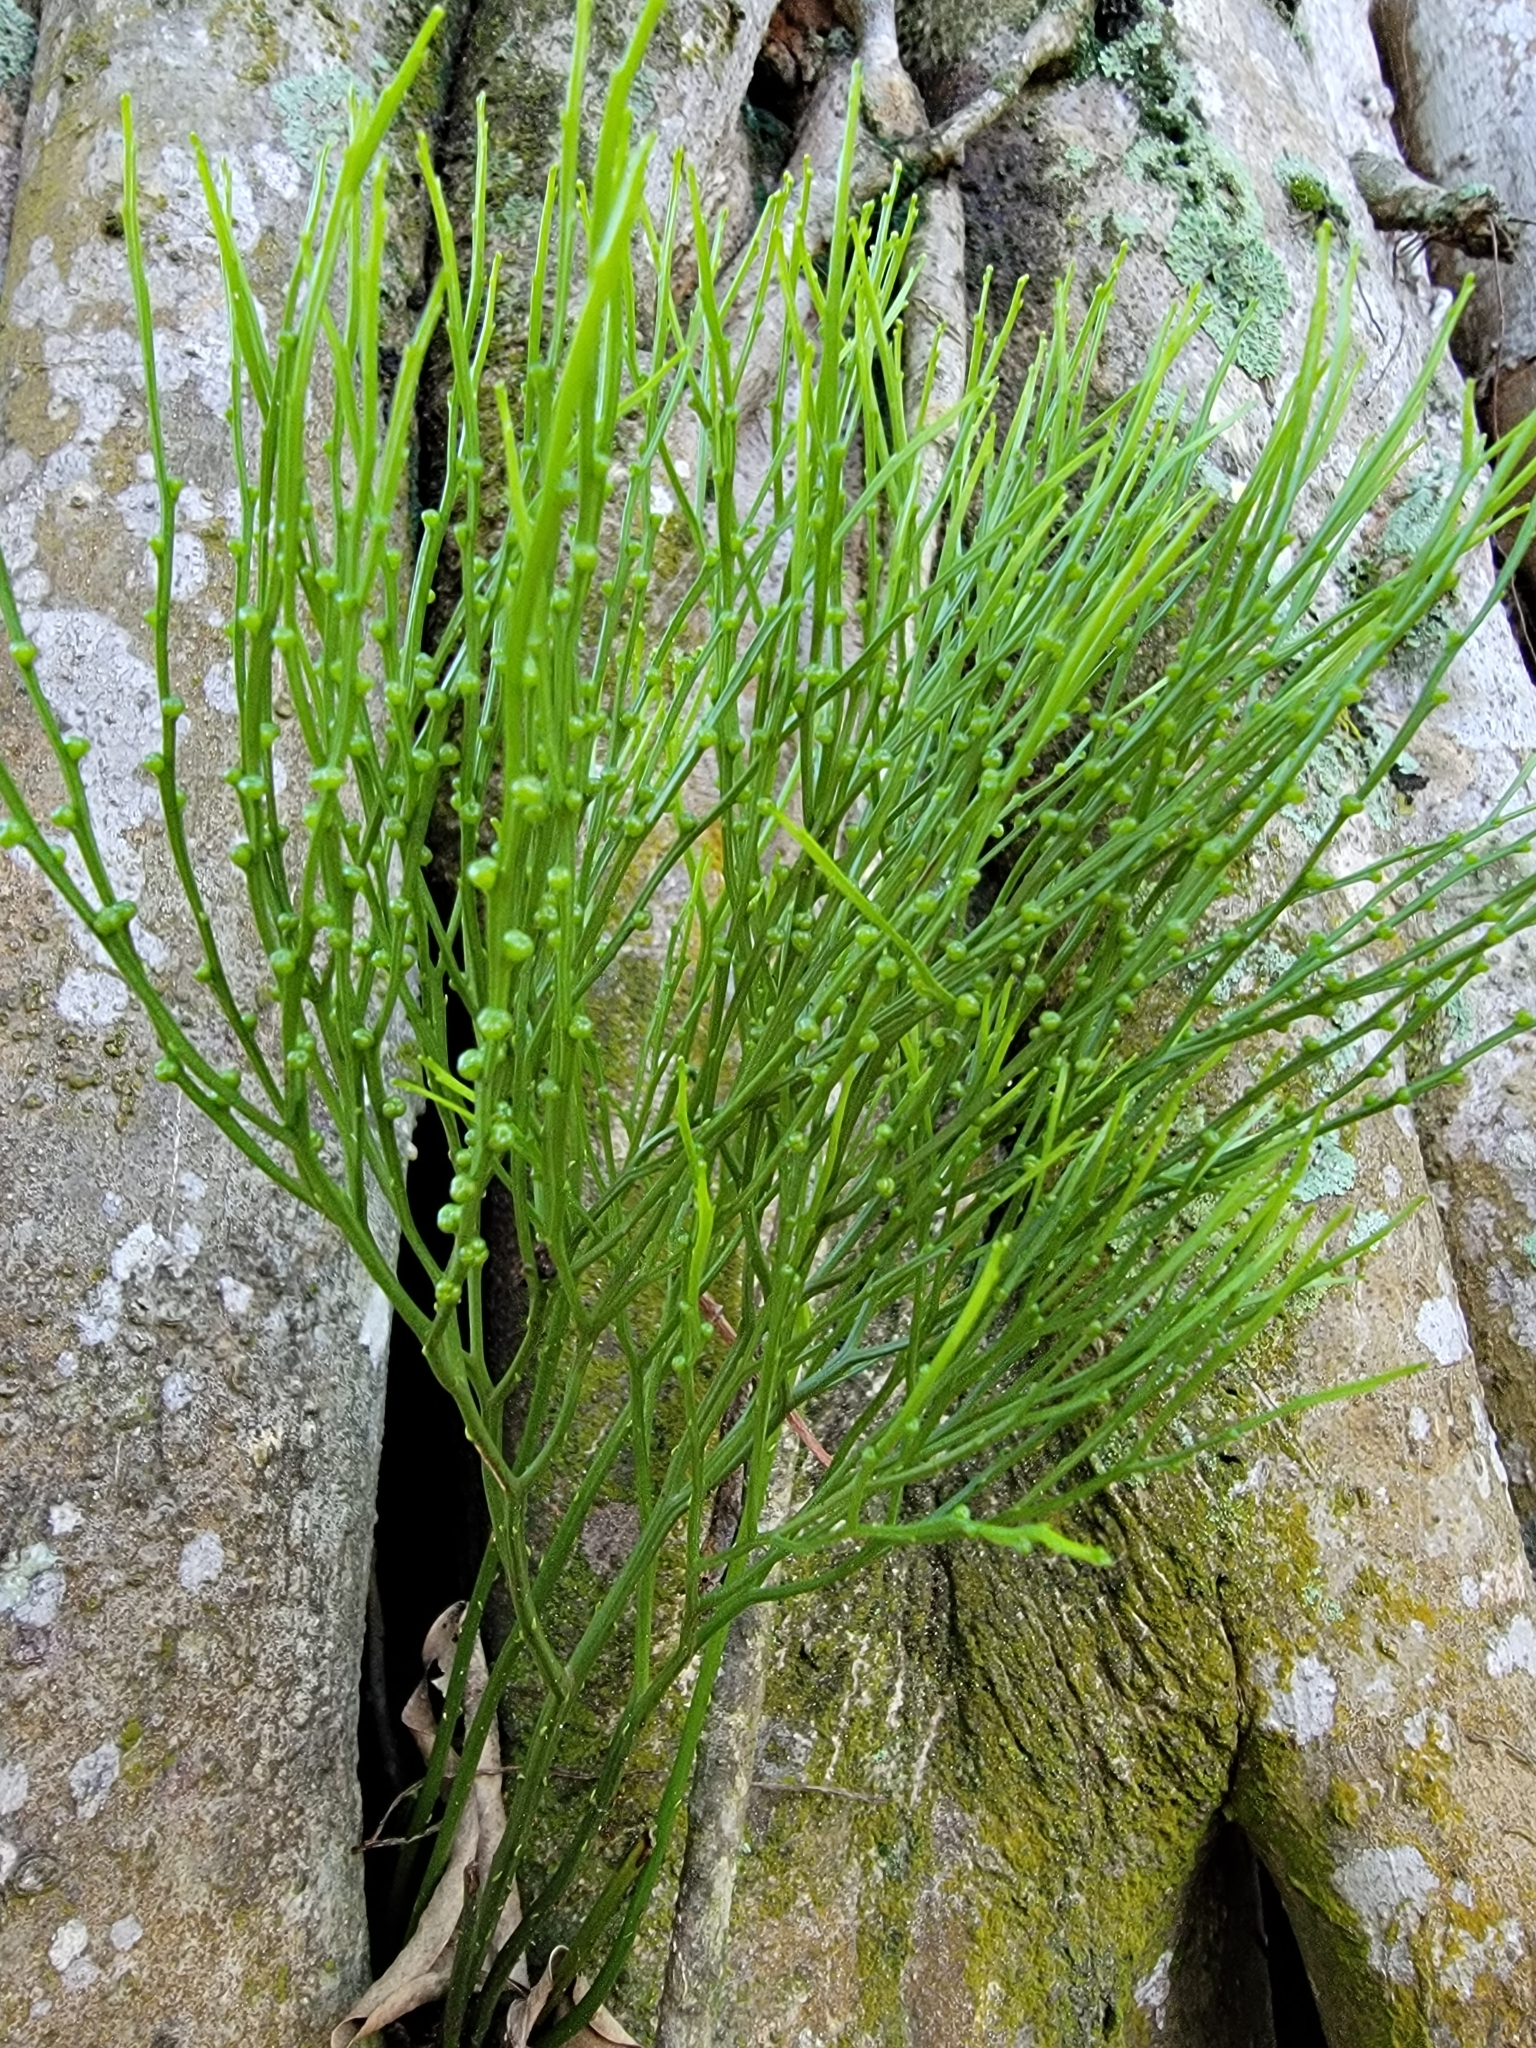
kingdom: Plantae
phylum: Tracheophyta
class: Polypodiopsida
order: Psilotales
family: Psilotaceae
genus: Psilotum
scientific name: Psilotum nudum
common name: Skeleton fork fern
